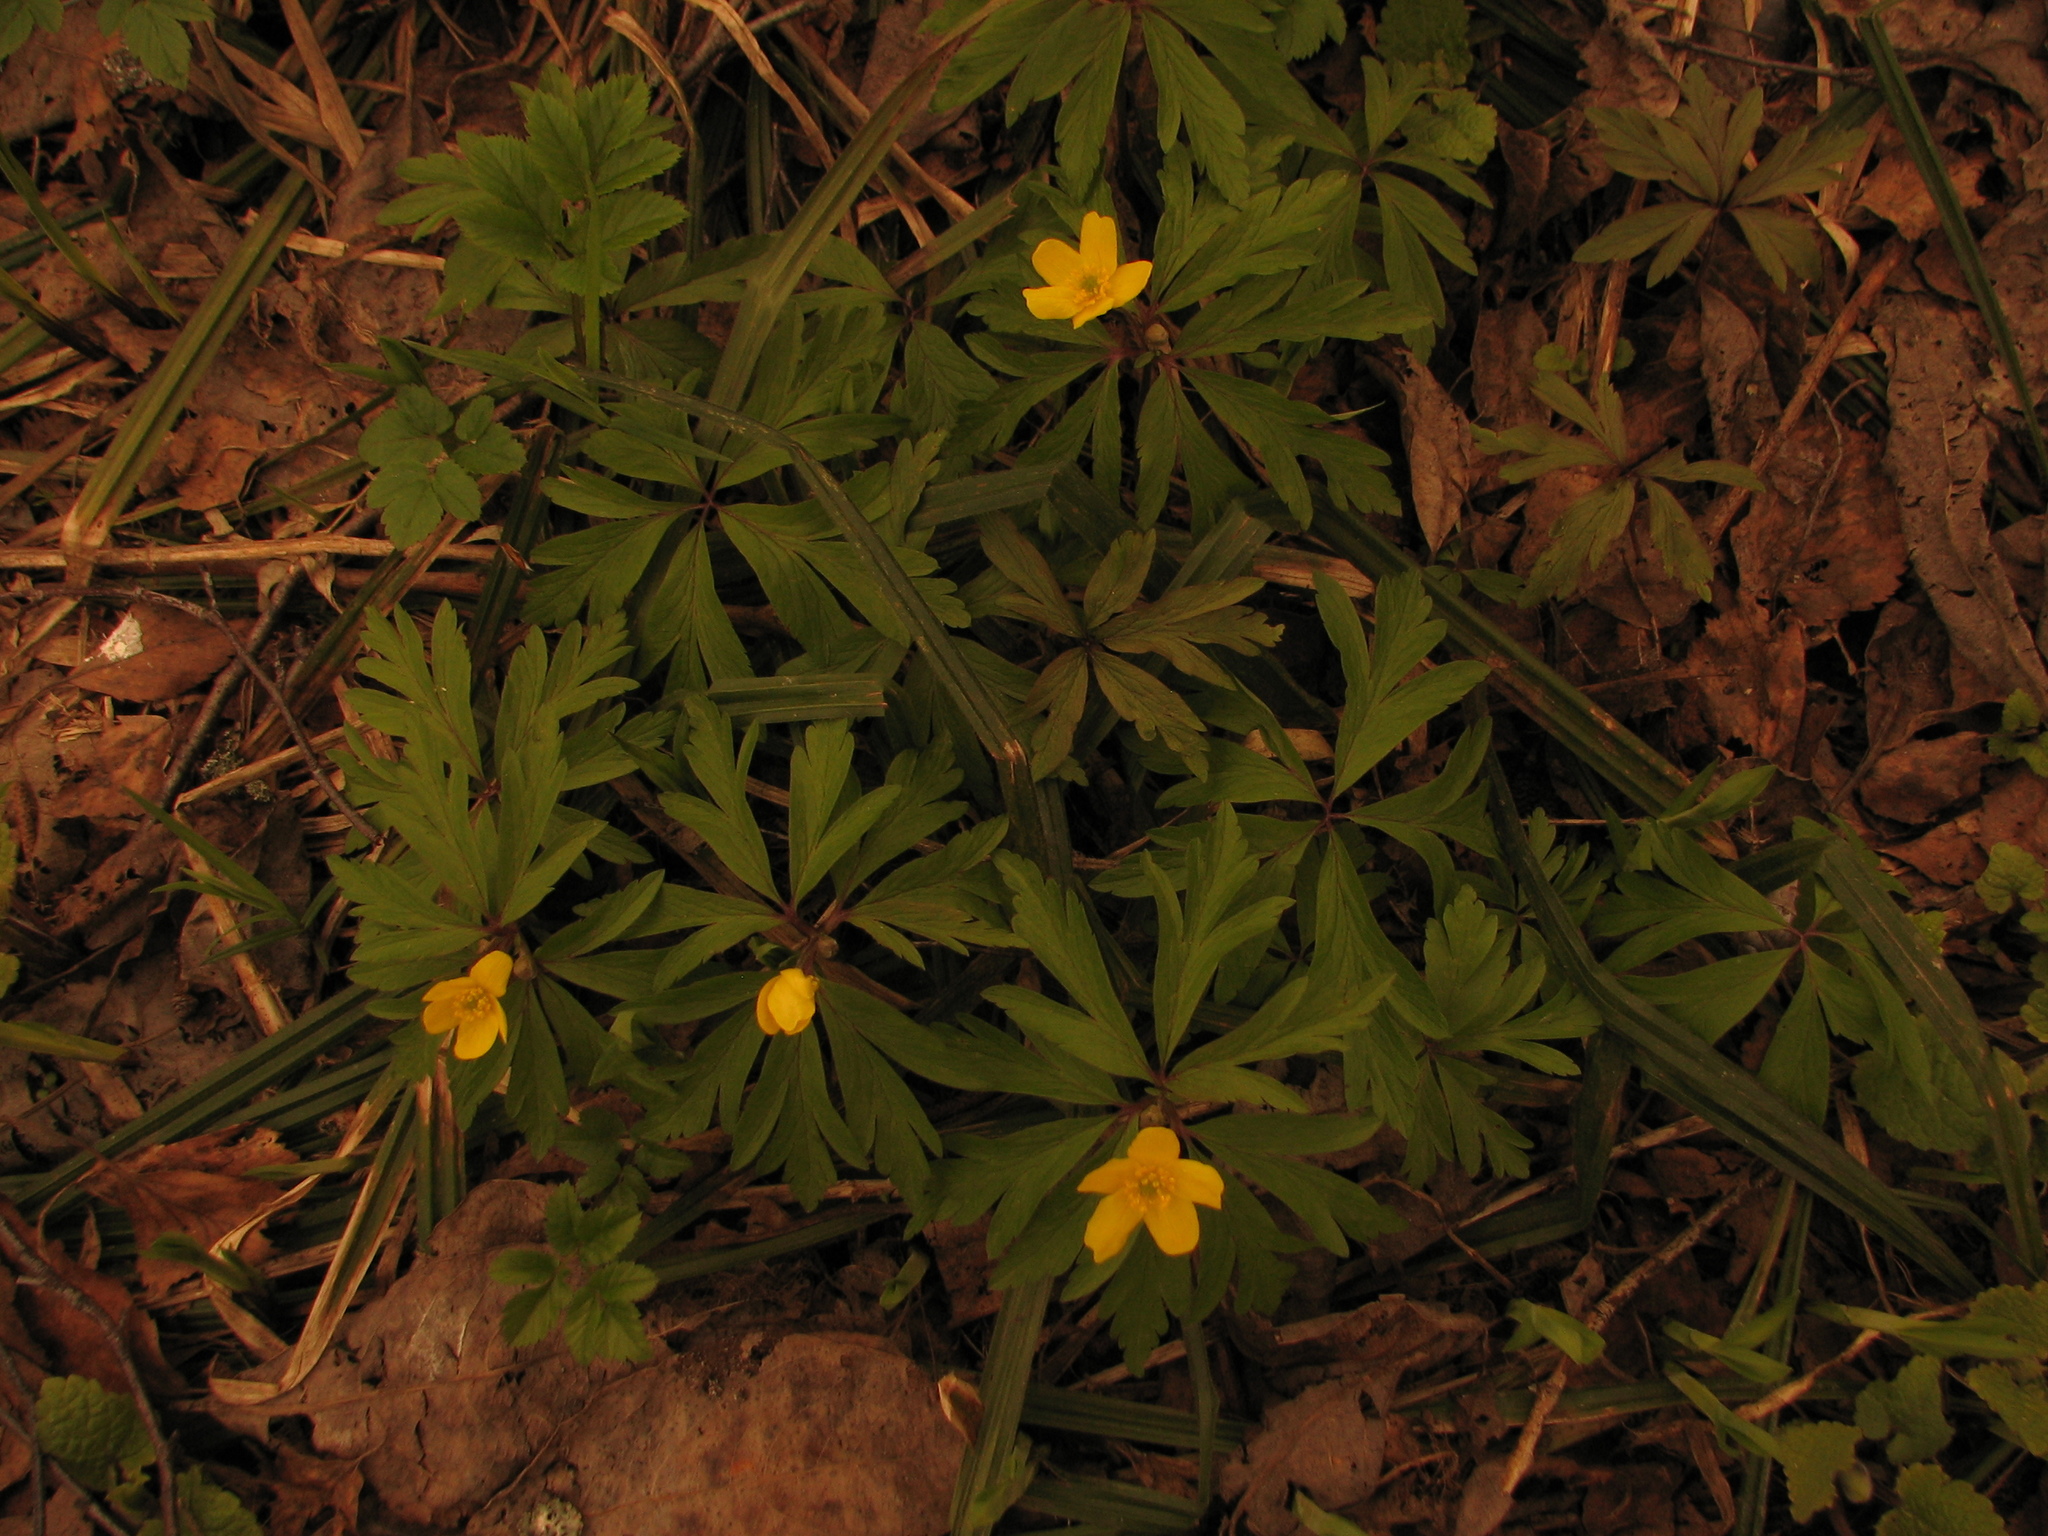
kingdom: Plantae
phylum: Tracheophyta
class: Magnoliopsida
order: Ranunculales
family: Ranunculaceae
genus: Anemone
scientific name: Anemone ranunculoides
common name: Yellow anemone
